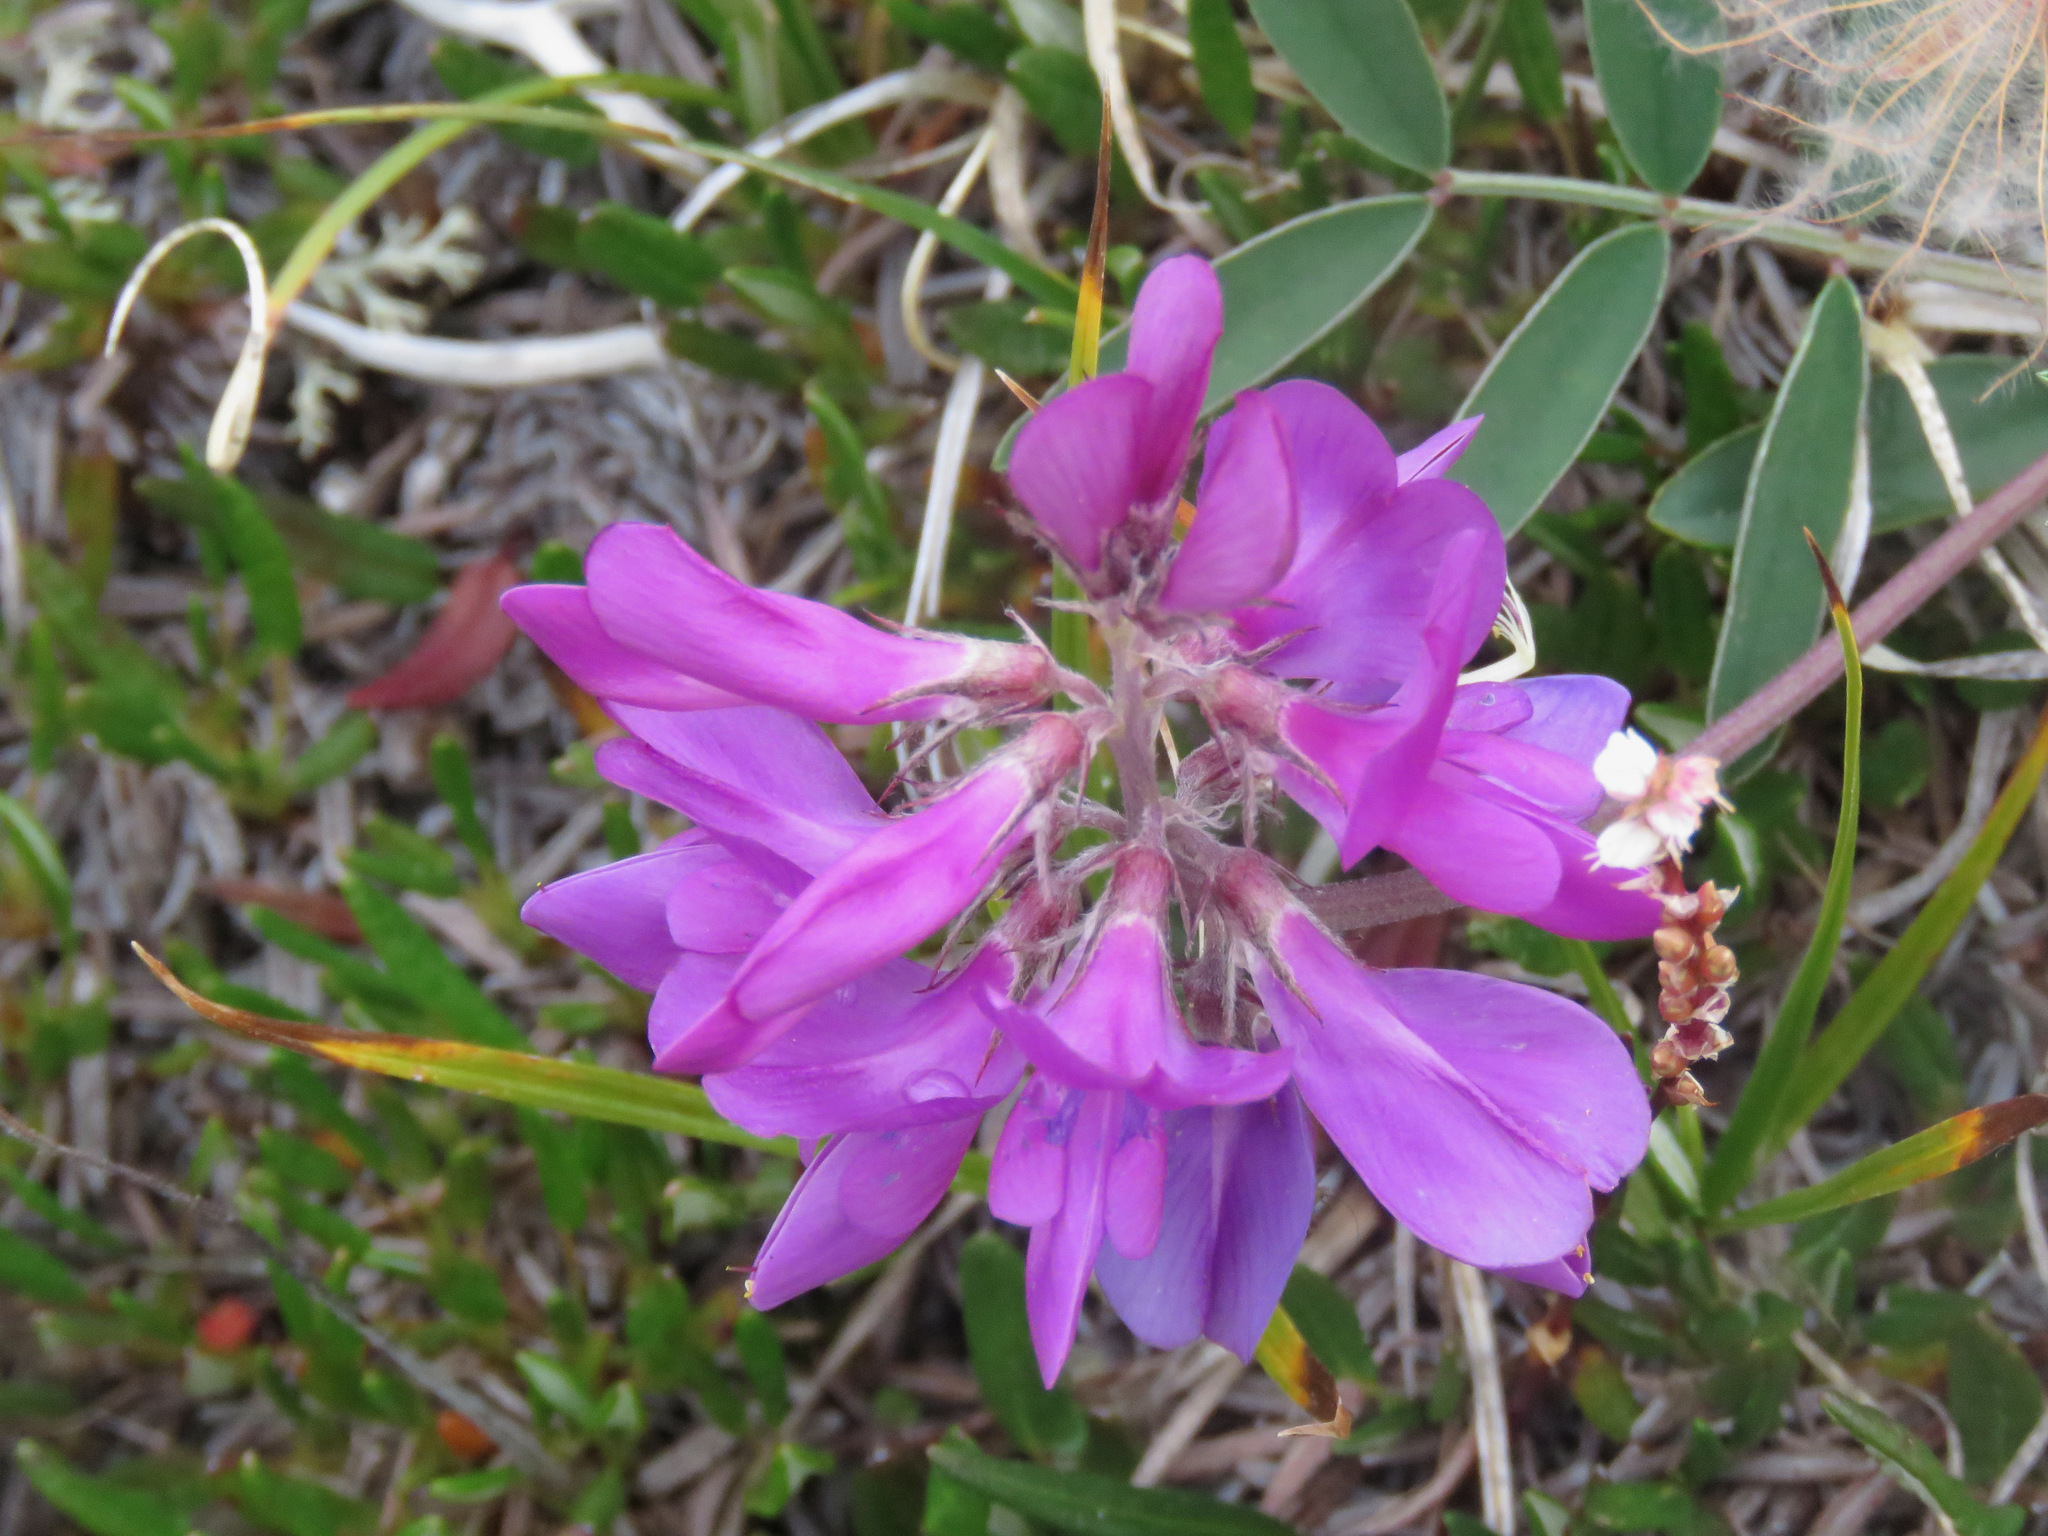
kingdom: Plantae
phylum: Tracheophyta
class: Magnoliopsida
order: Fabales
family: Fabaceae
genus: Hedysarum
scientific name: Hedysarum boreale
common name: Northern sweet-vetch
